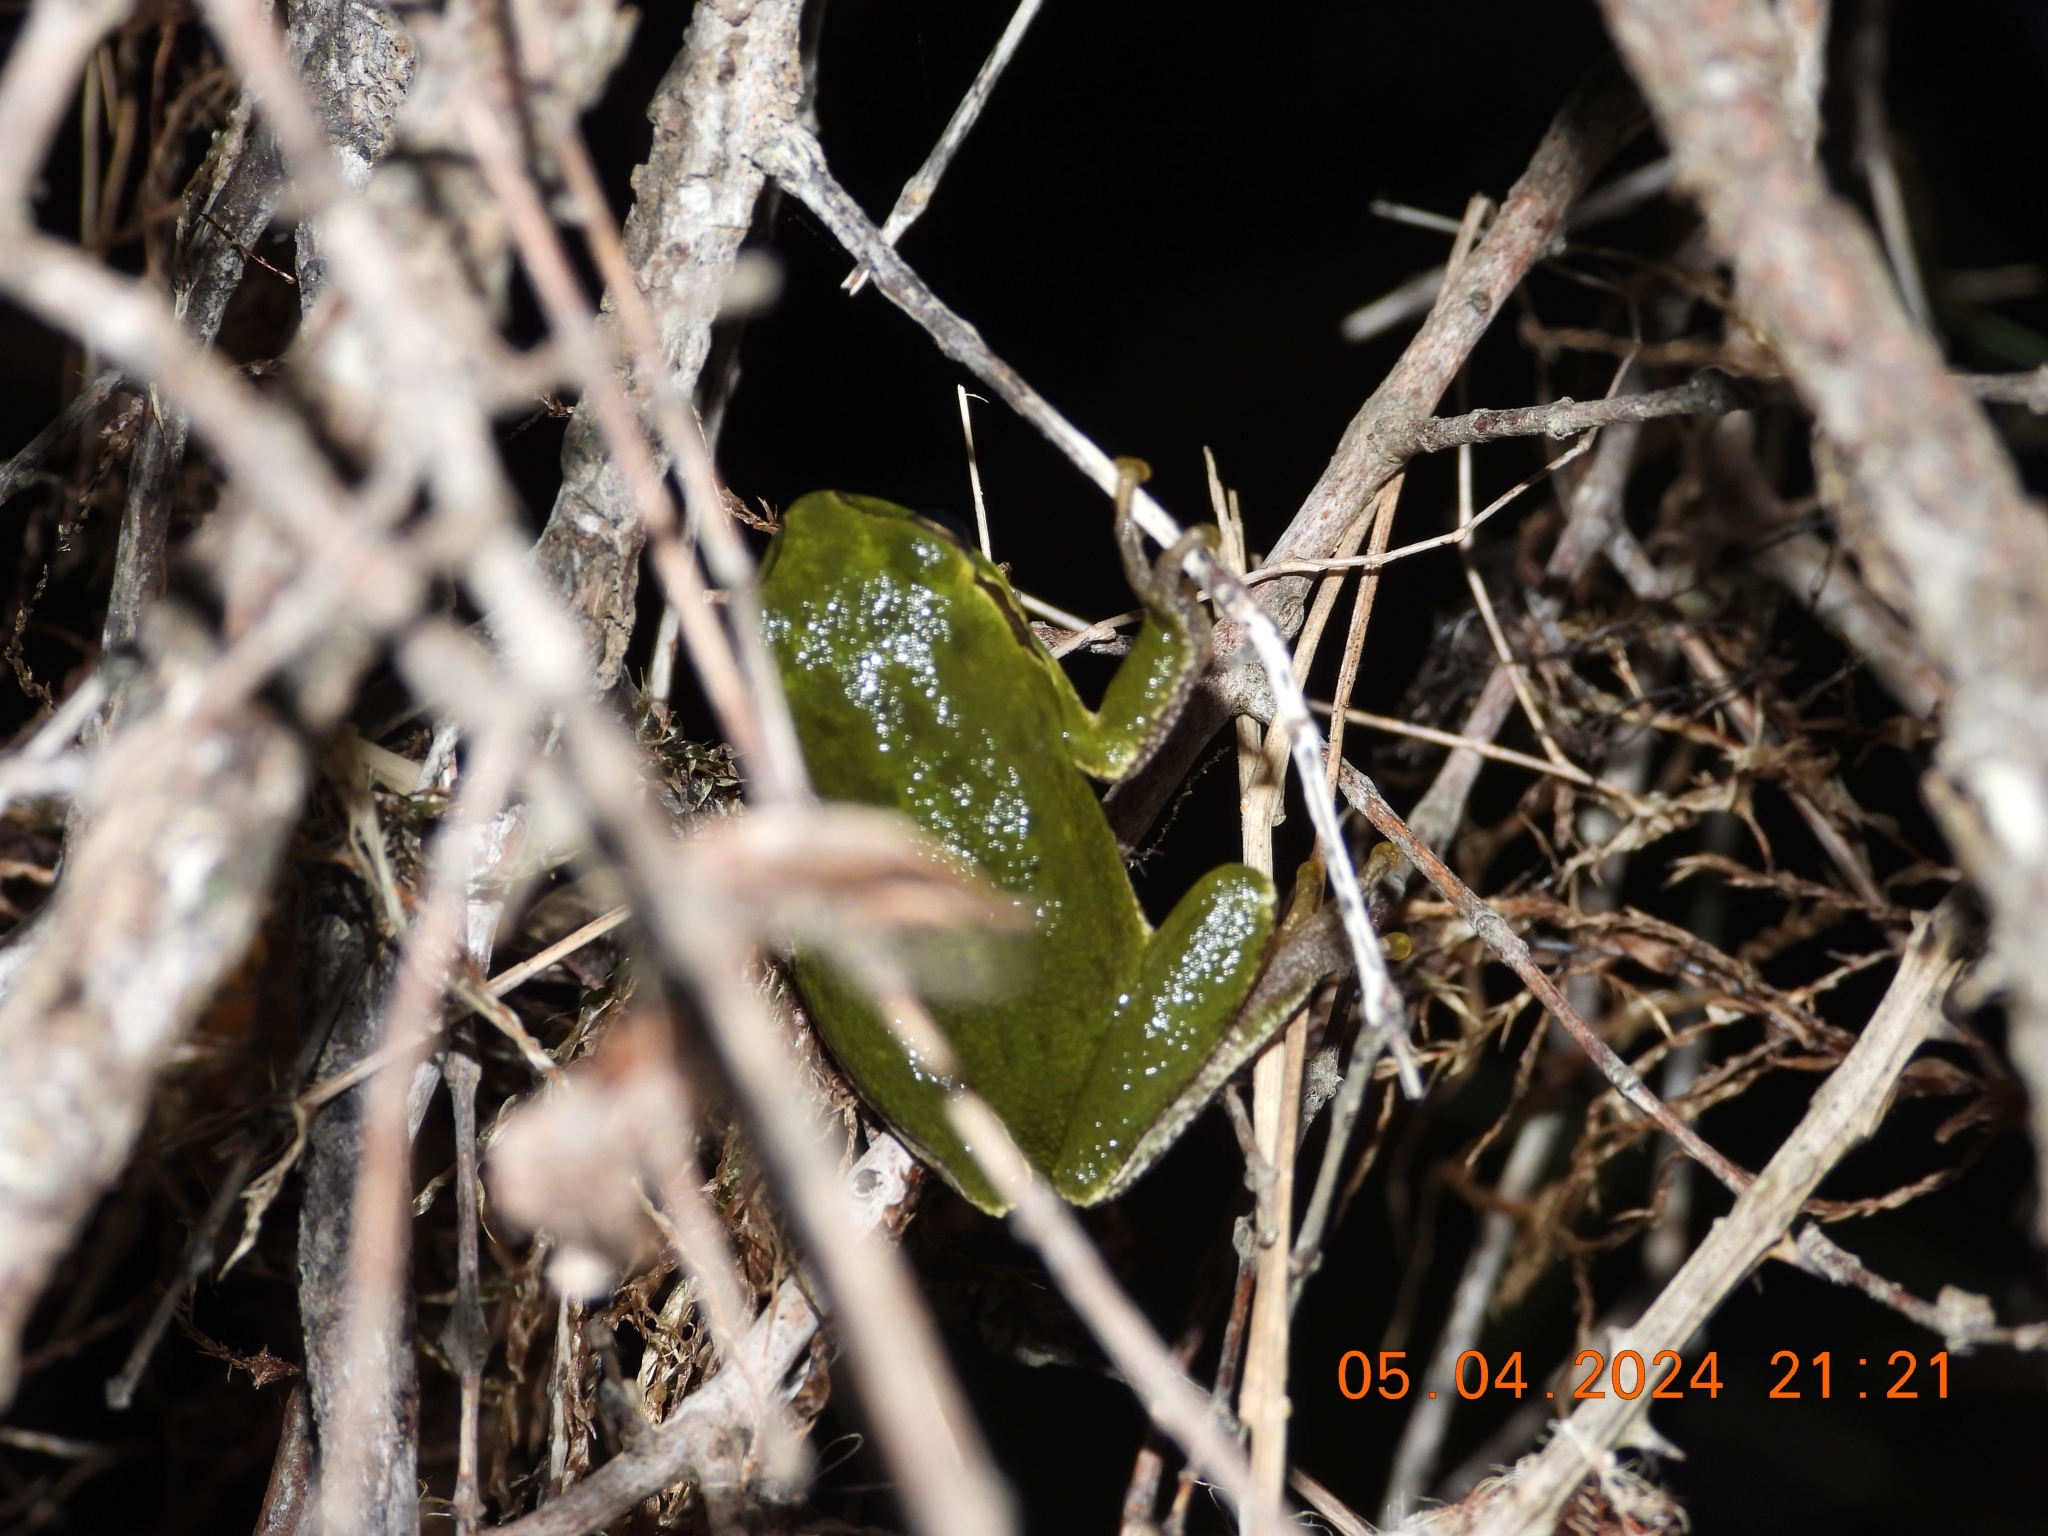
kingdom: Animalia
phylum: Chordata
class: Amphibia
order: Anura
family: Hylidae
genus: Hyla
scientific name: Hyla sarda
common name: Sardinian tree frog
